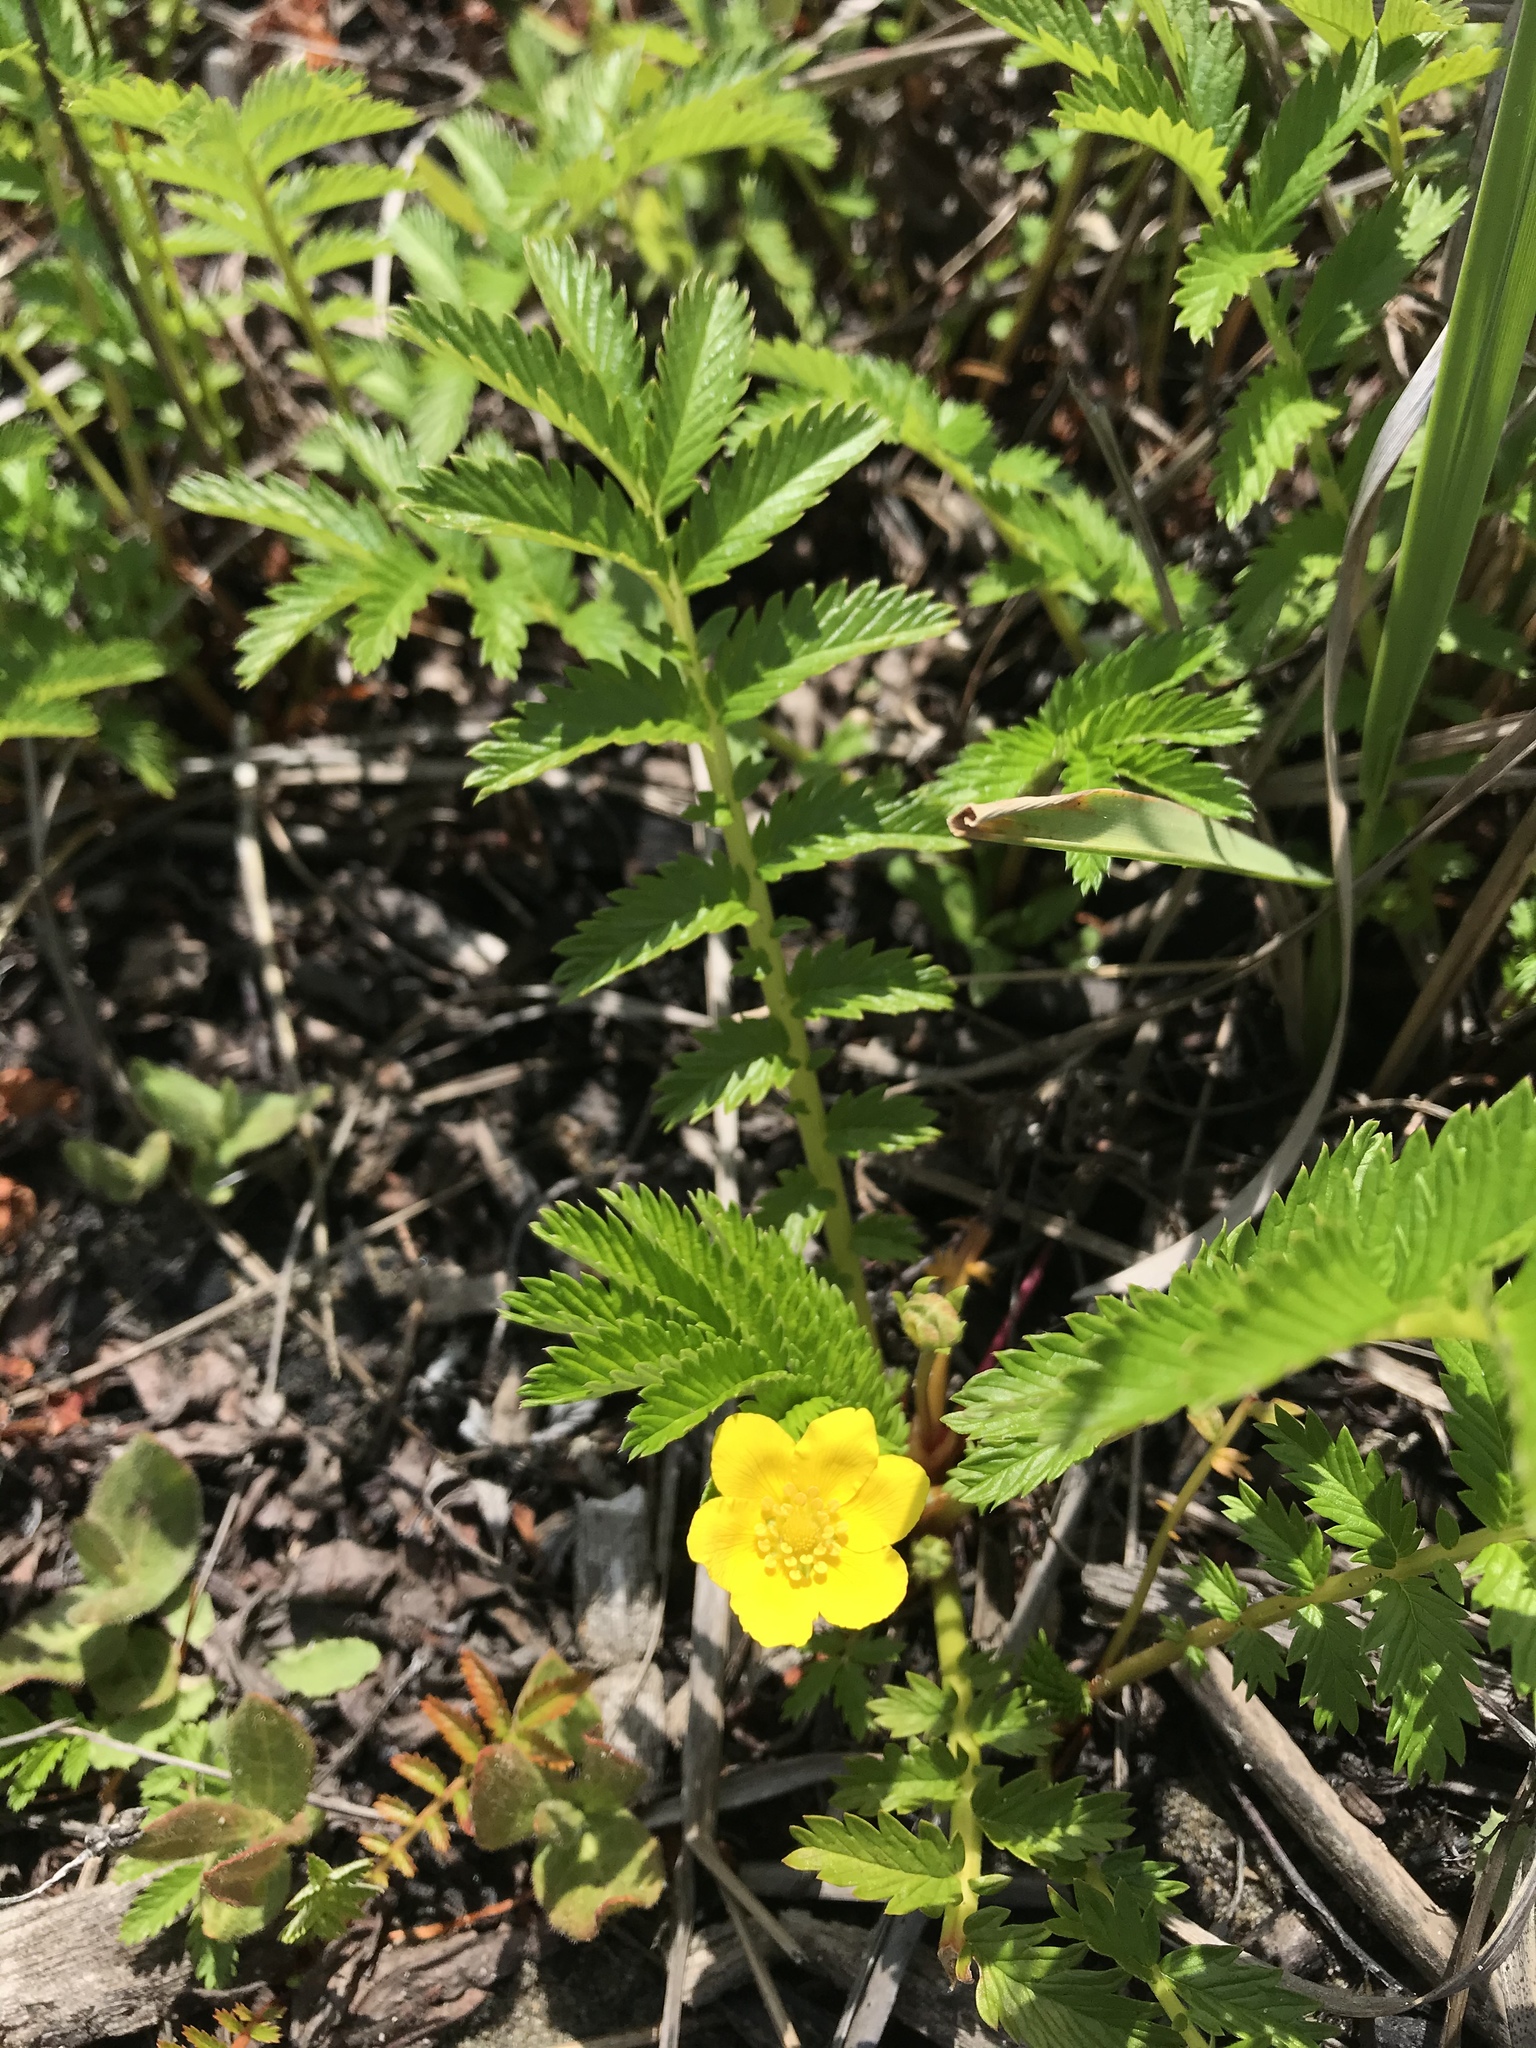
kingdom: Plantae
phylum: Tracheophyta
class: Magnoliopsida
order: Rosales
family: Rosaceae
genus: Argentina
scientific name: Argentina anserina
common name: Common silverweed
